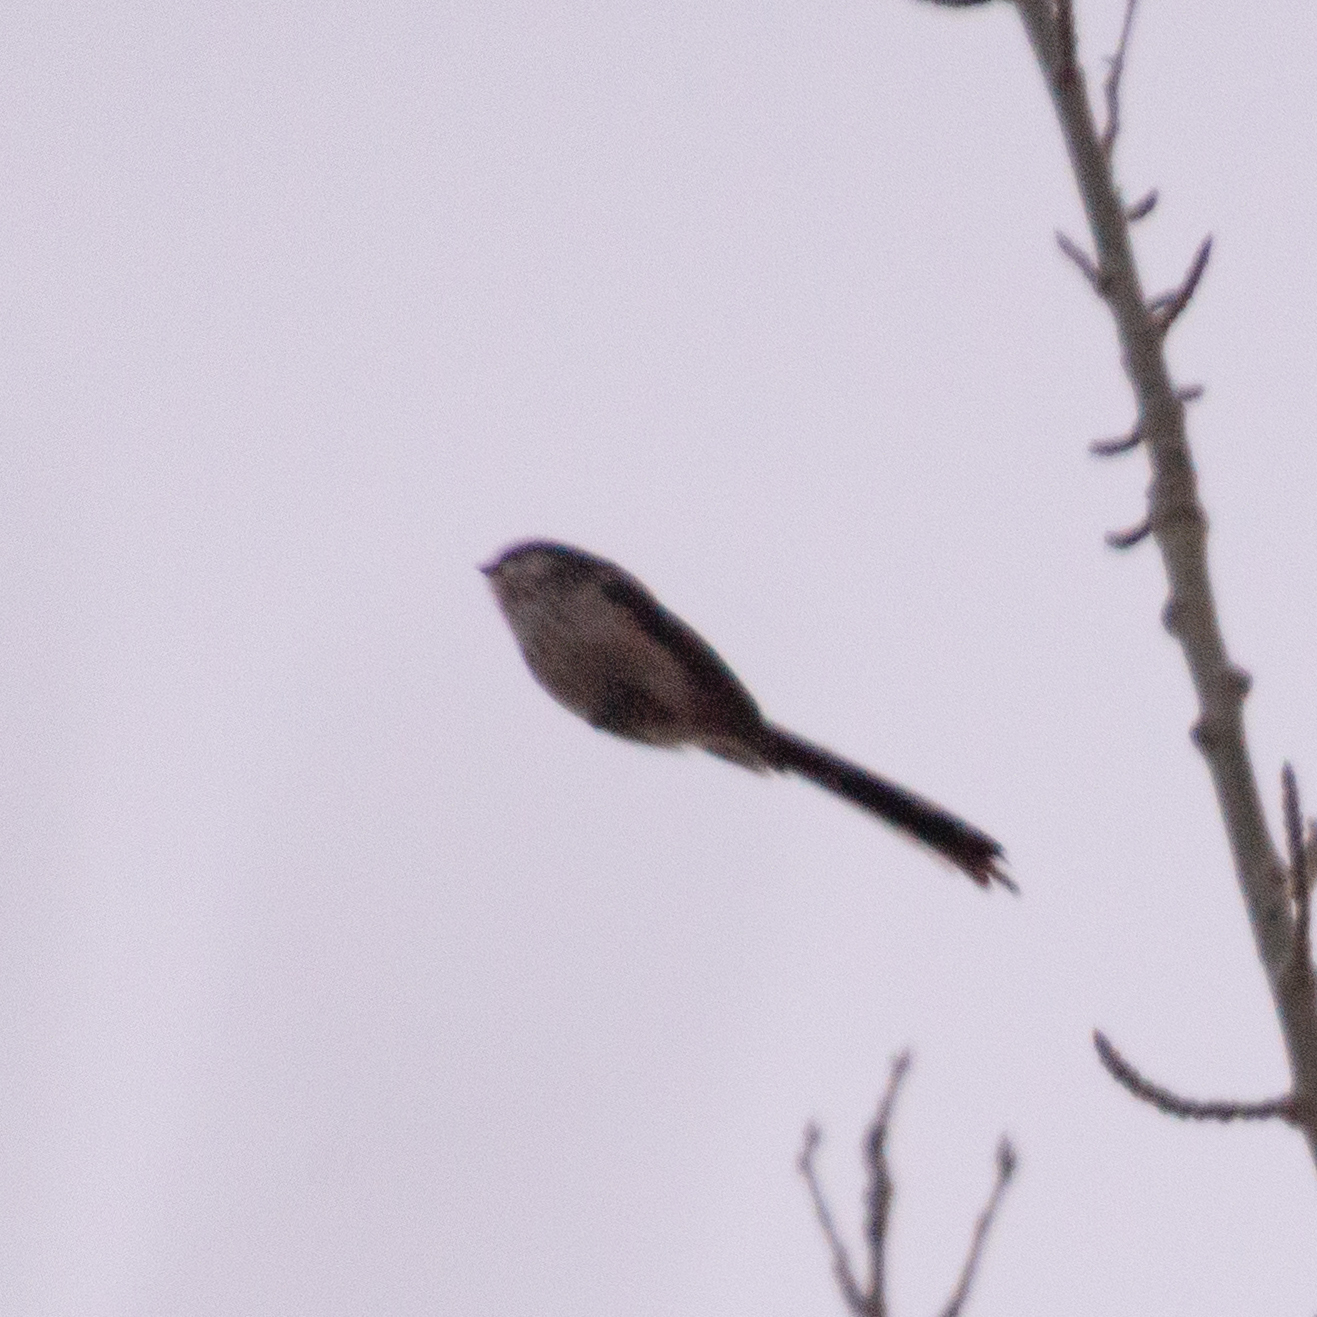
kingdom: Animalia
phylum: Chordata
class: Aves
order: Passeriformes
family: Aegithalidae
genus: Aegithalos
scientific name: Aegithalos caudatus
